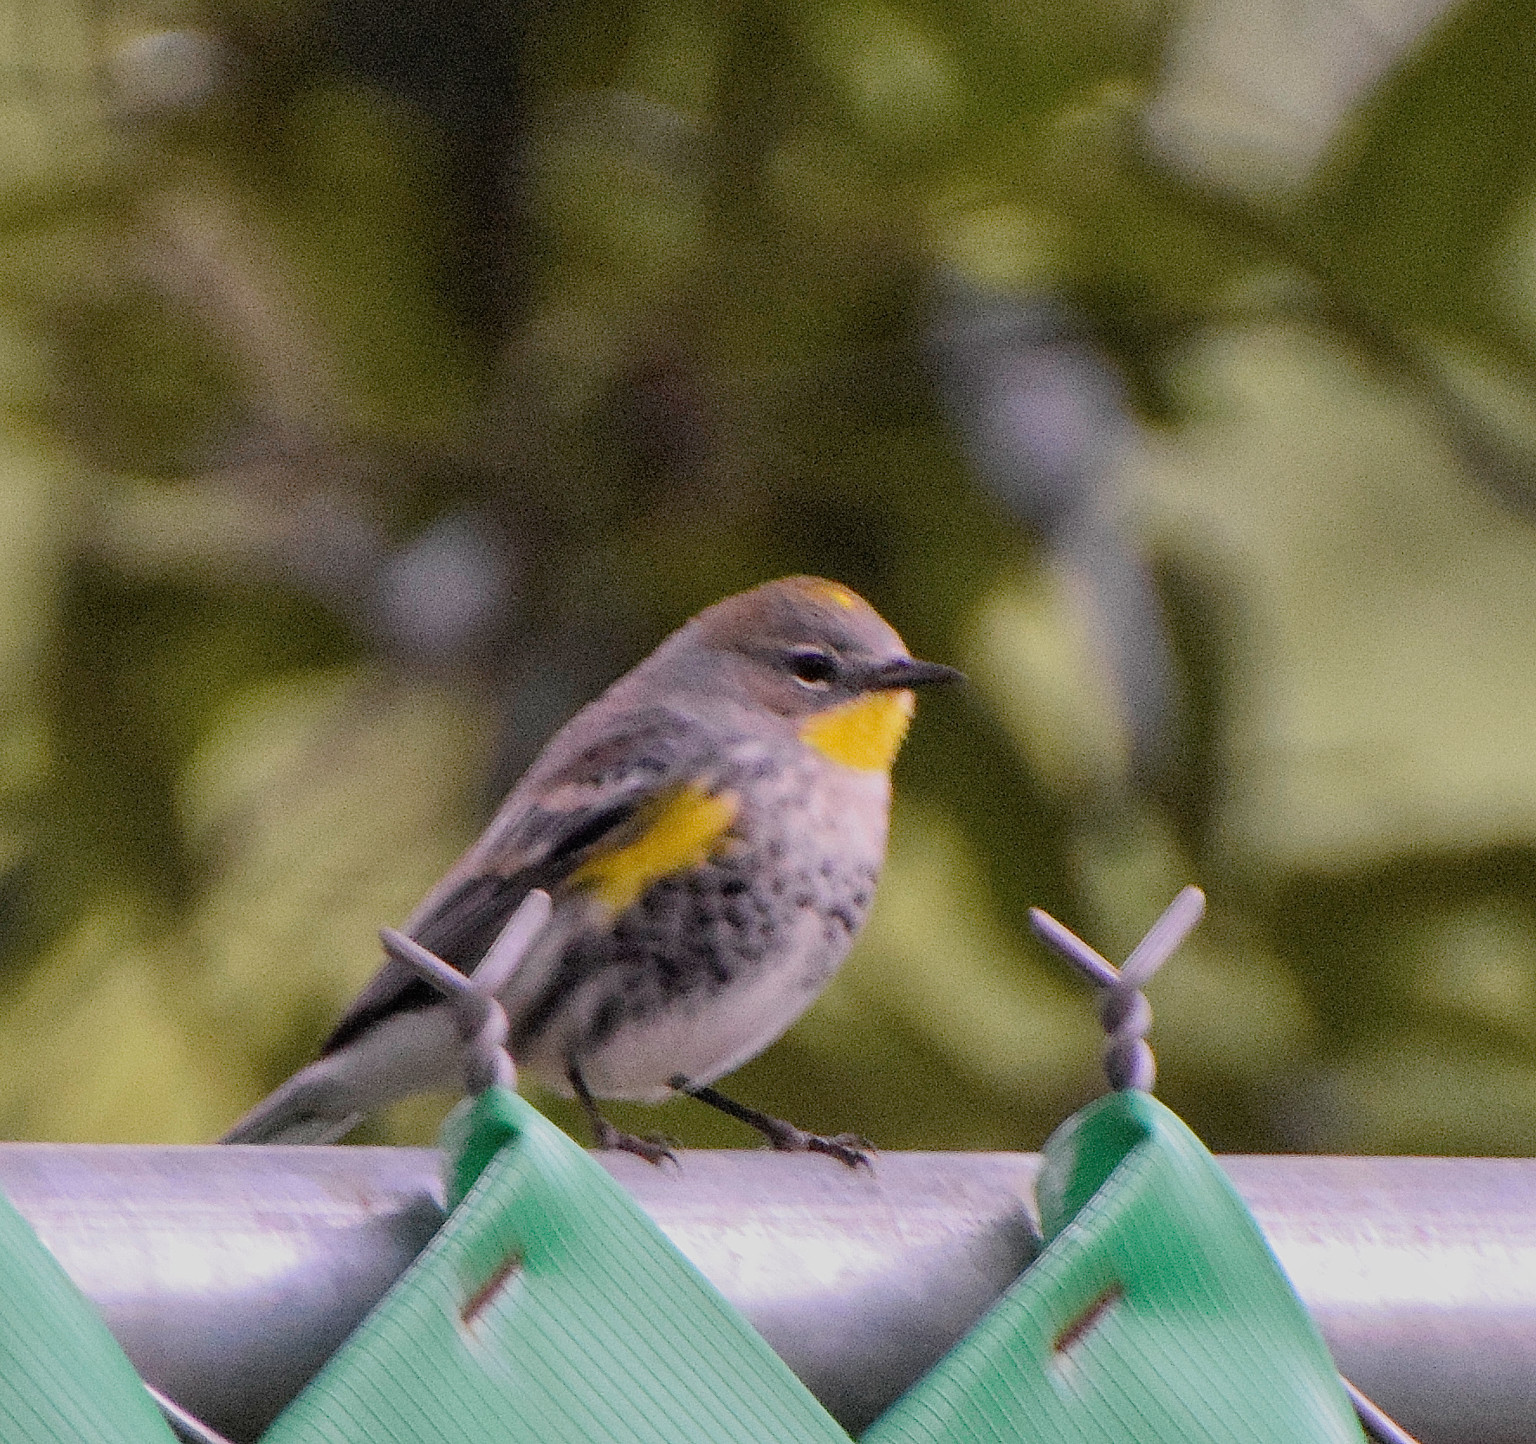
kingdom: Animalia
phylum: Chordata
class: Aves
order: Passeriformes
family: Parulidae
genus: Setophaga
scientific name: Setophaga auduboni
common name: Audubon's warbler
